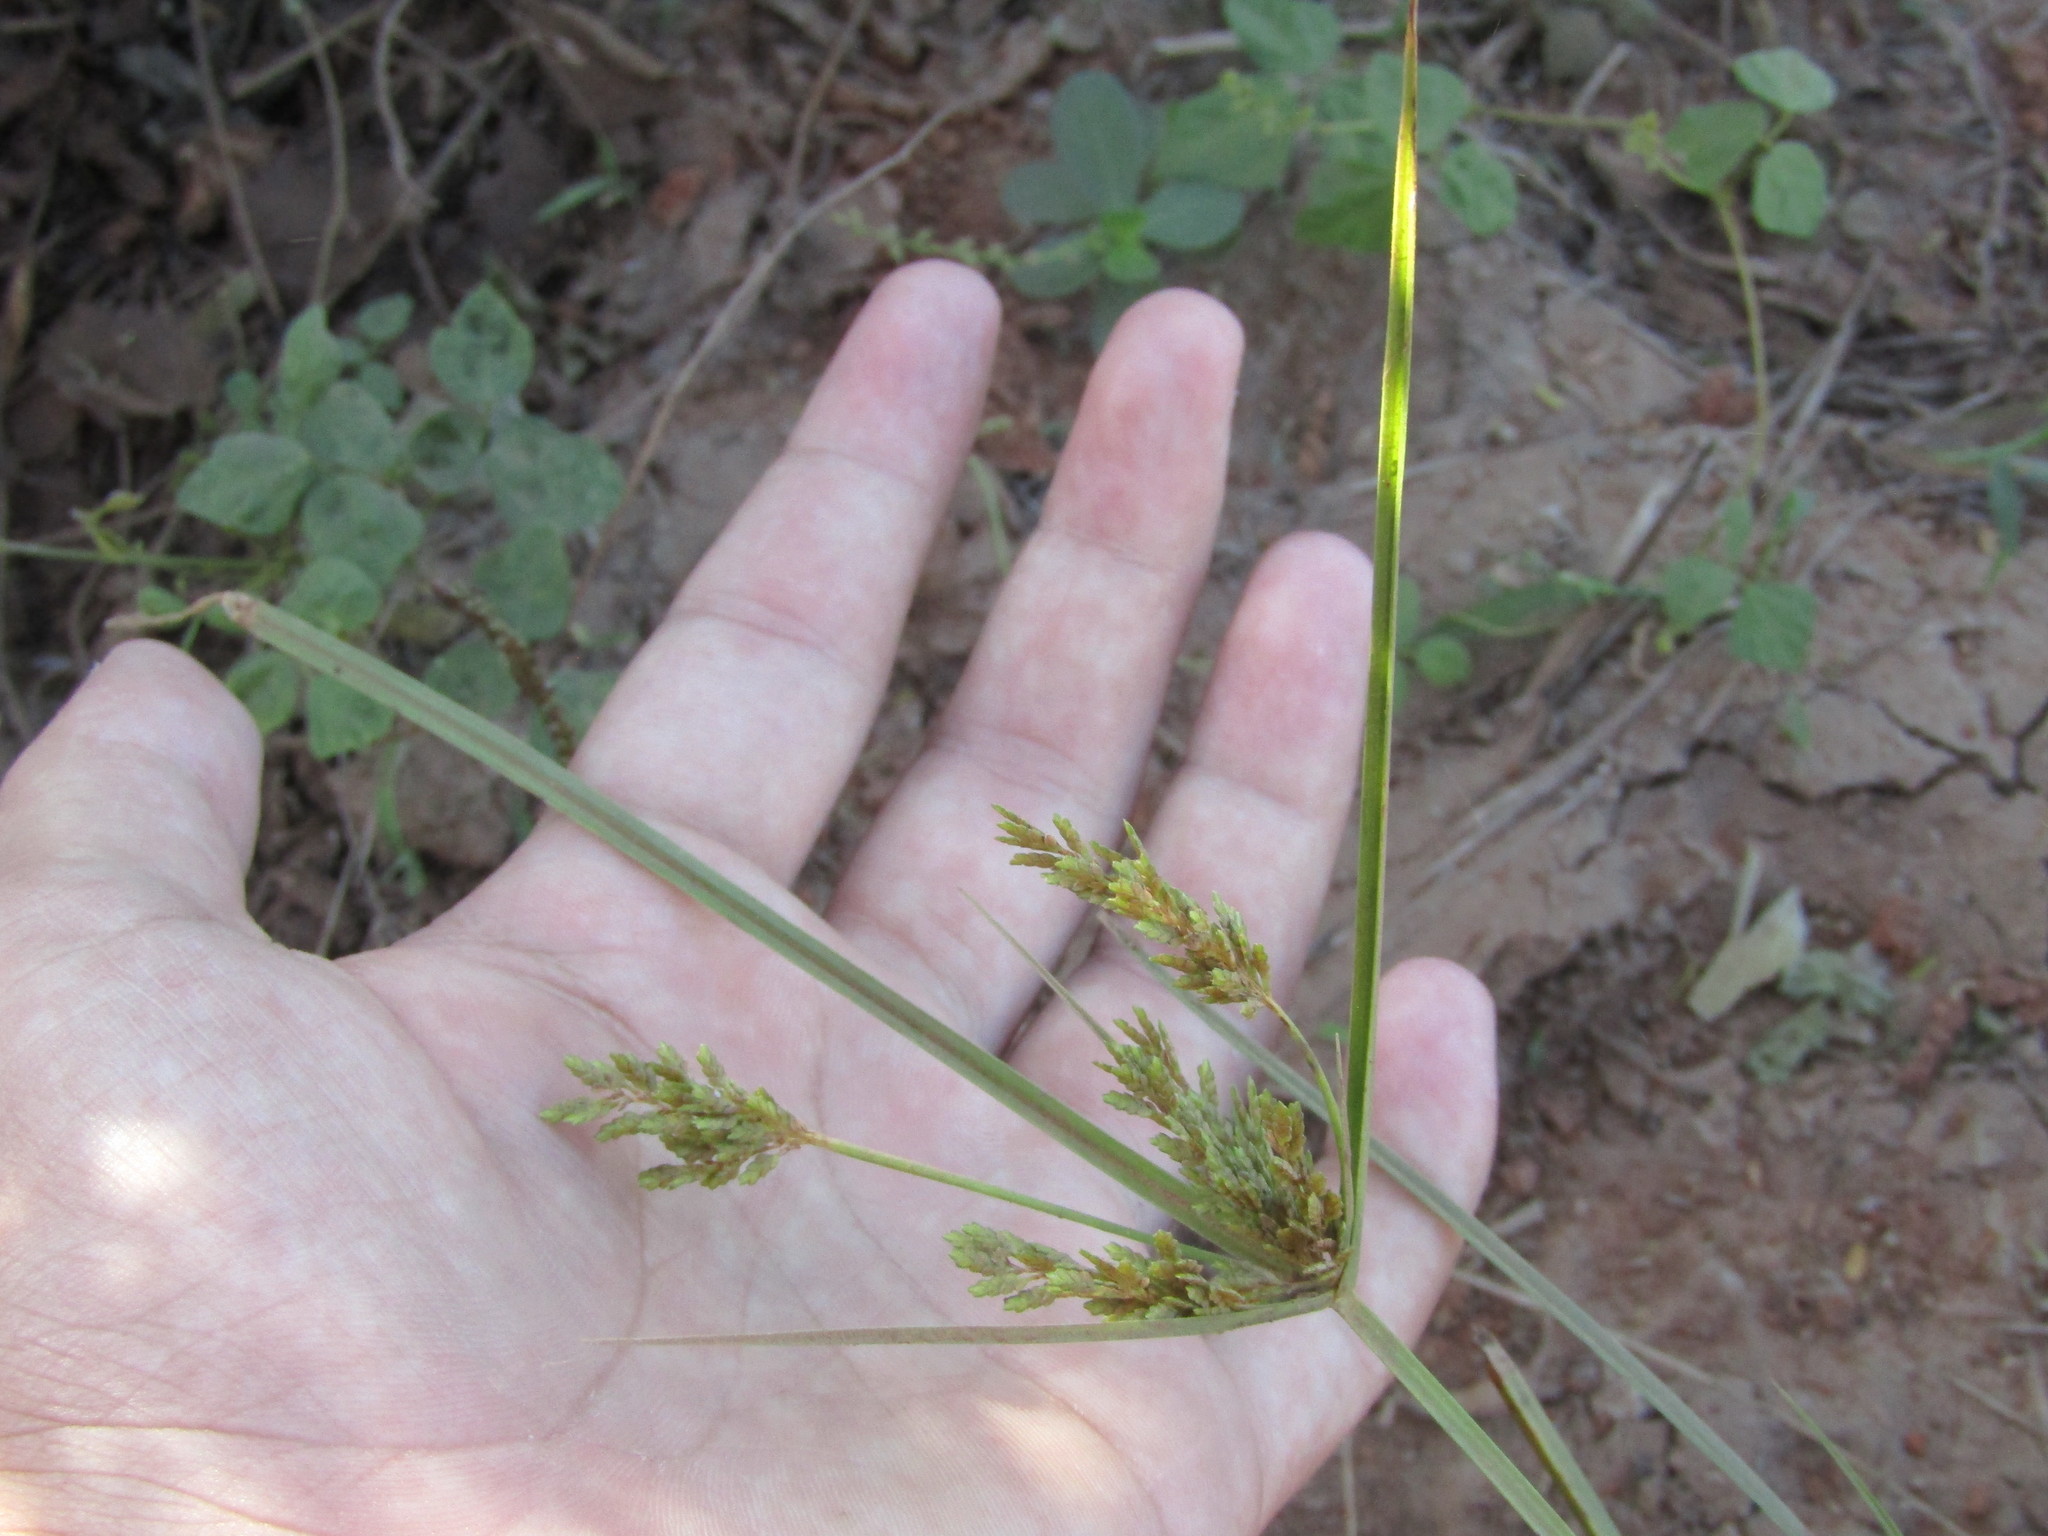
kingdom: Plantae
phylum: Tracheophyta
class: Liliopsida
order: Poales
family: Cyperaceae
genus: Cyperus
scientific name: Cyperus iria
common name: Ricefield flatsedge
